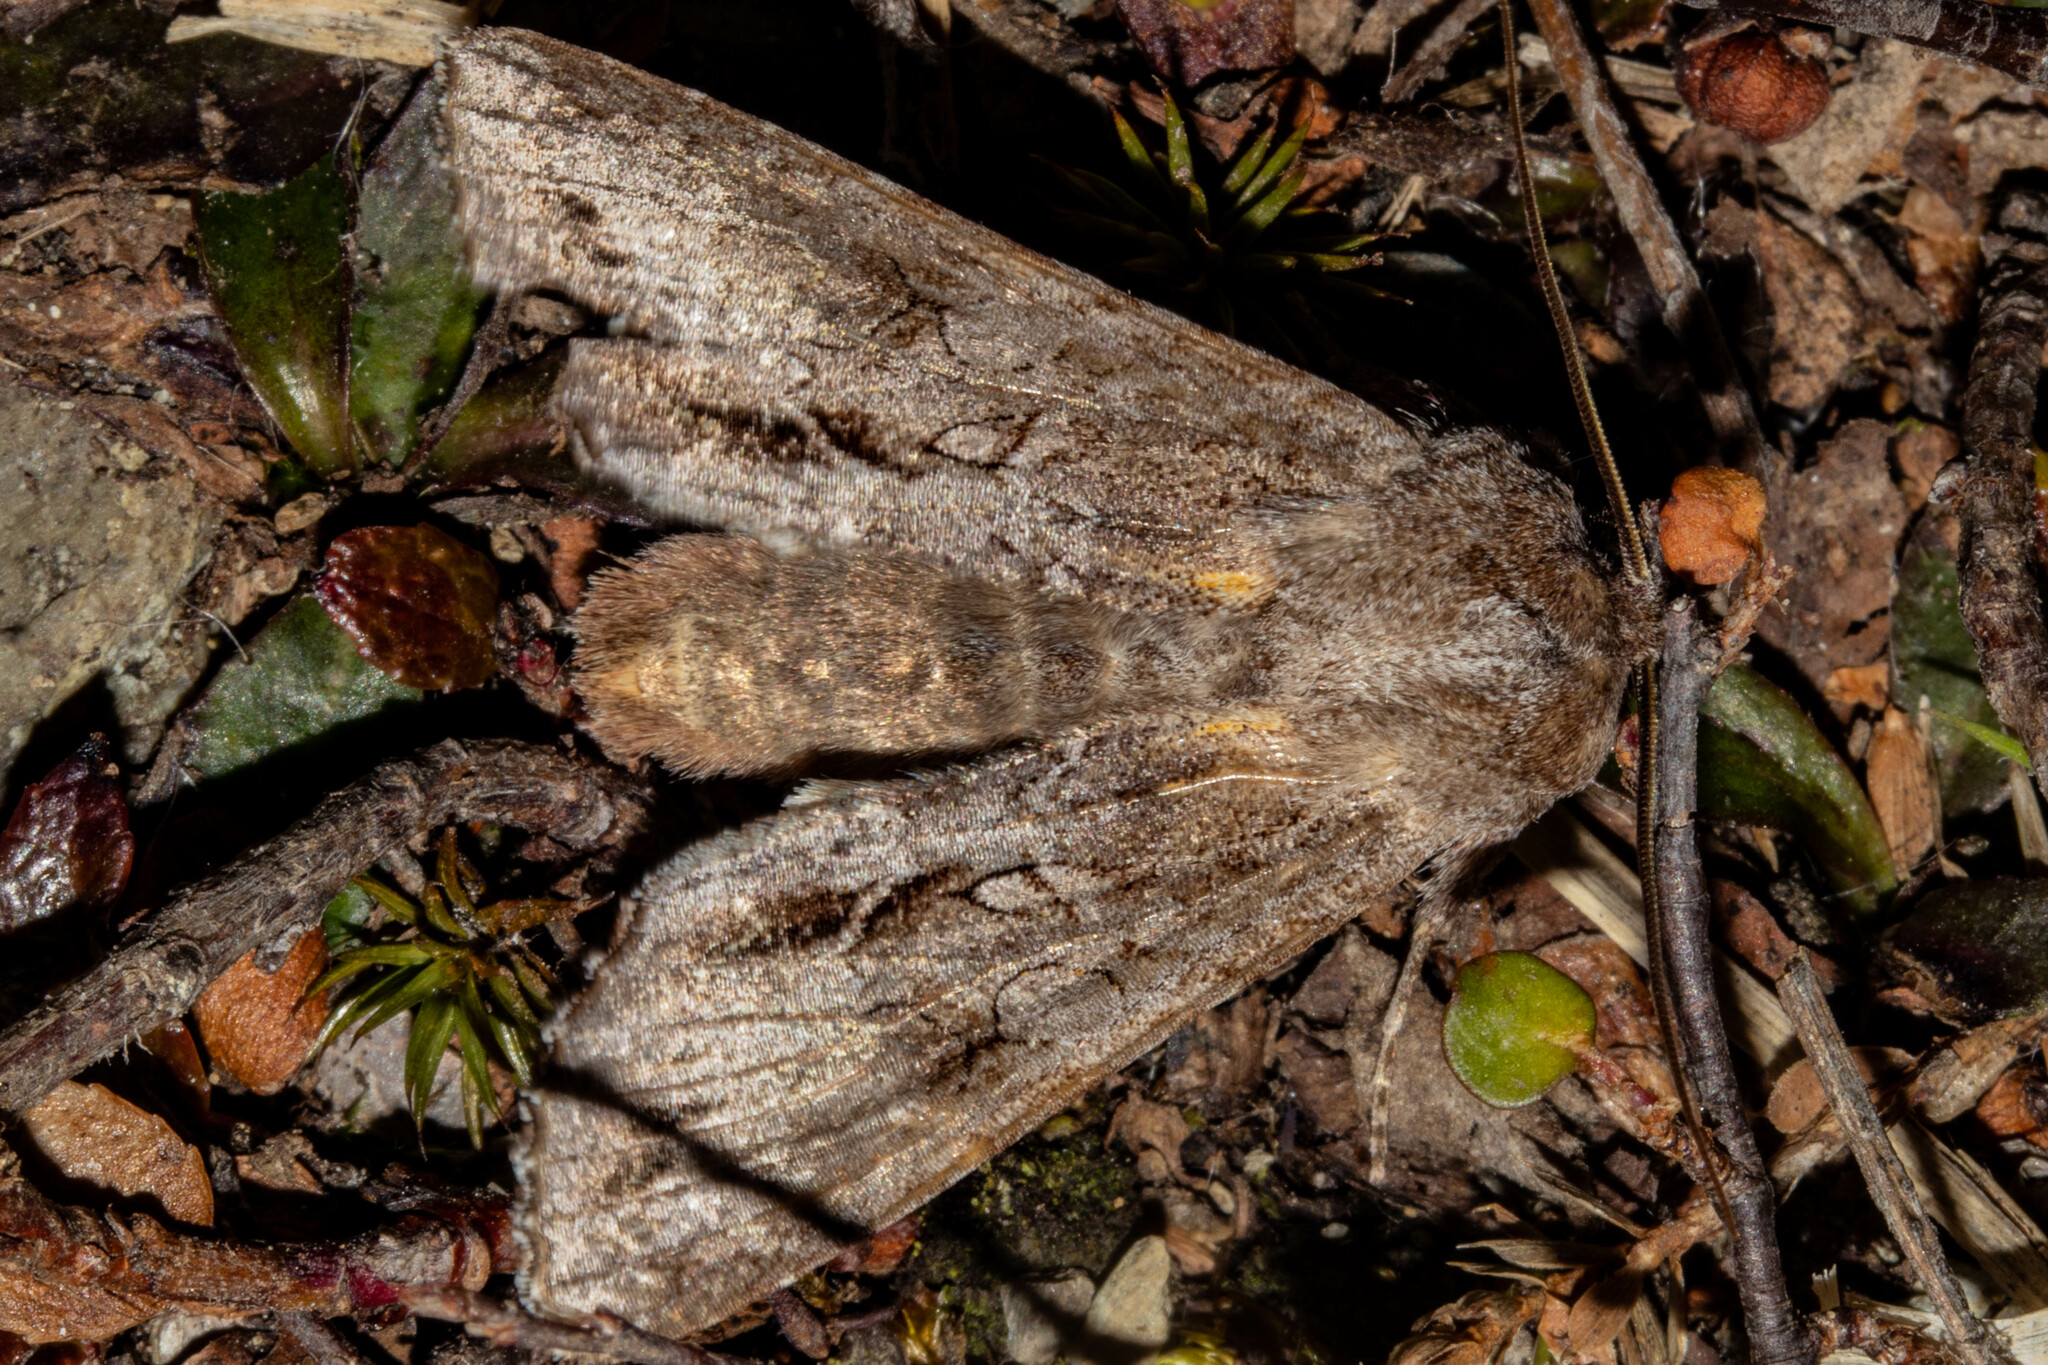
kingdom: Animalia
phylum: Arthropoda
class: Insecta
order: Lepidoptera
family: Noctuidae
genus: Ichneutica
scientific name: Ichneutica
